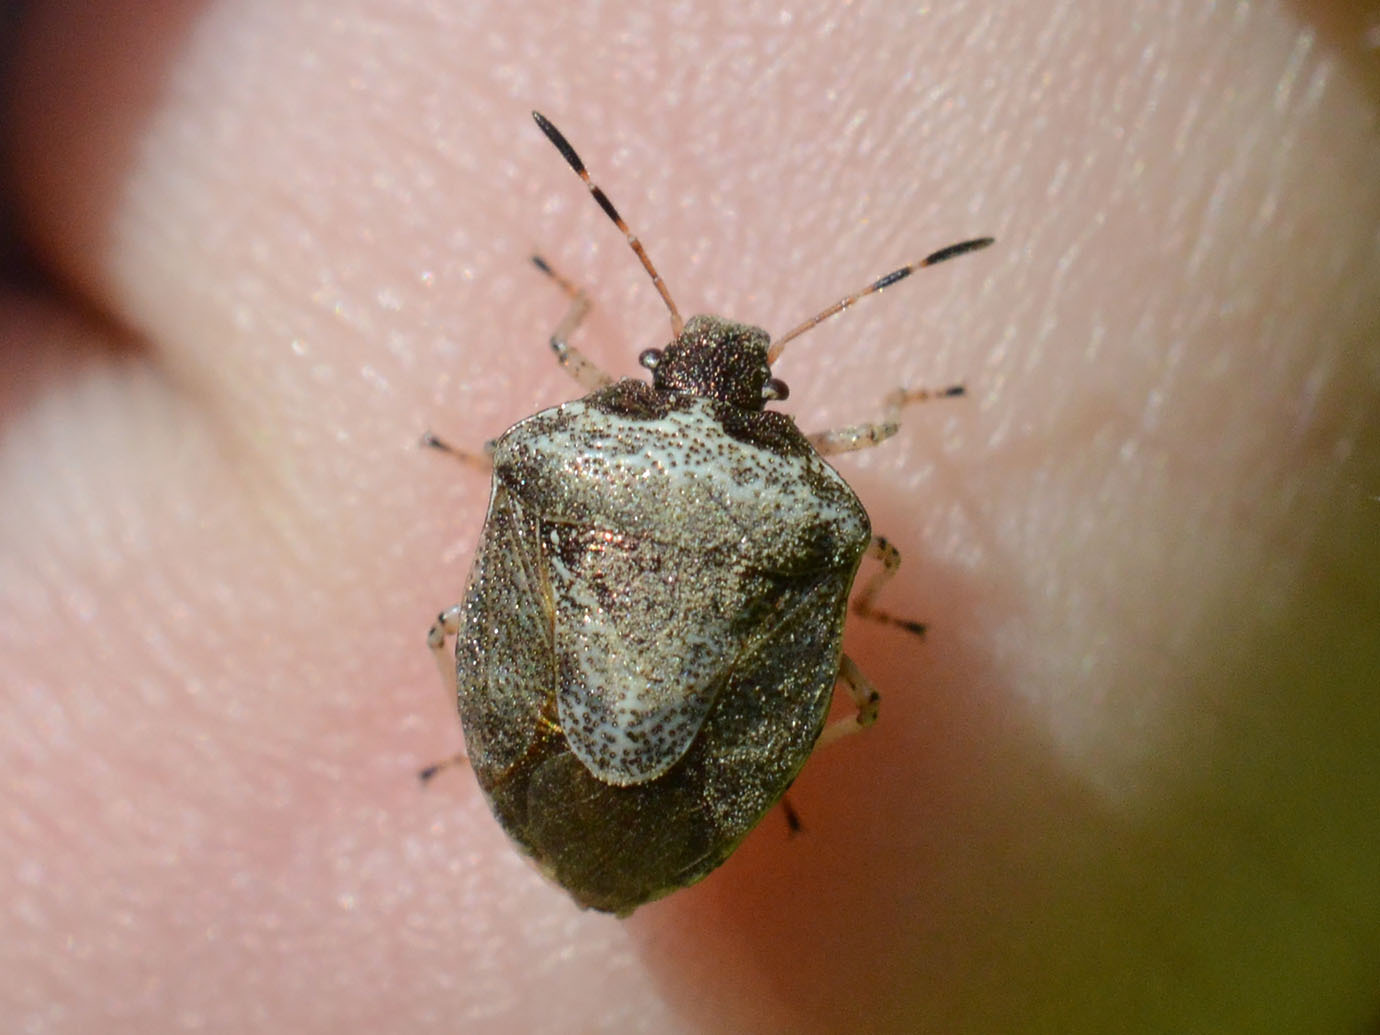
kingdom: Animalia
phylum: Arthropoda
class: Insecta
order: Hemiptera
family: Pentatomidae
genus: Eysarcoris
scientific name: Eysarcoris venustissimus
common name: Woundwort shieldbug
